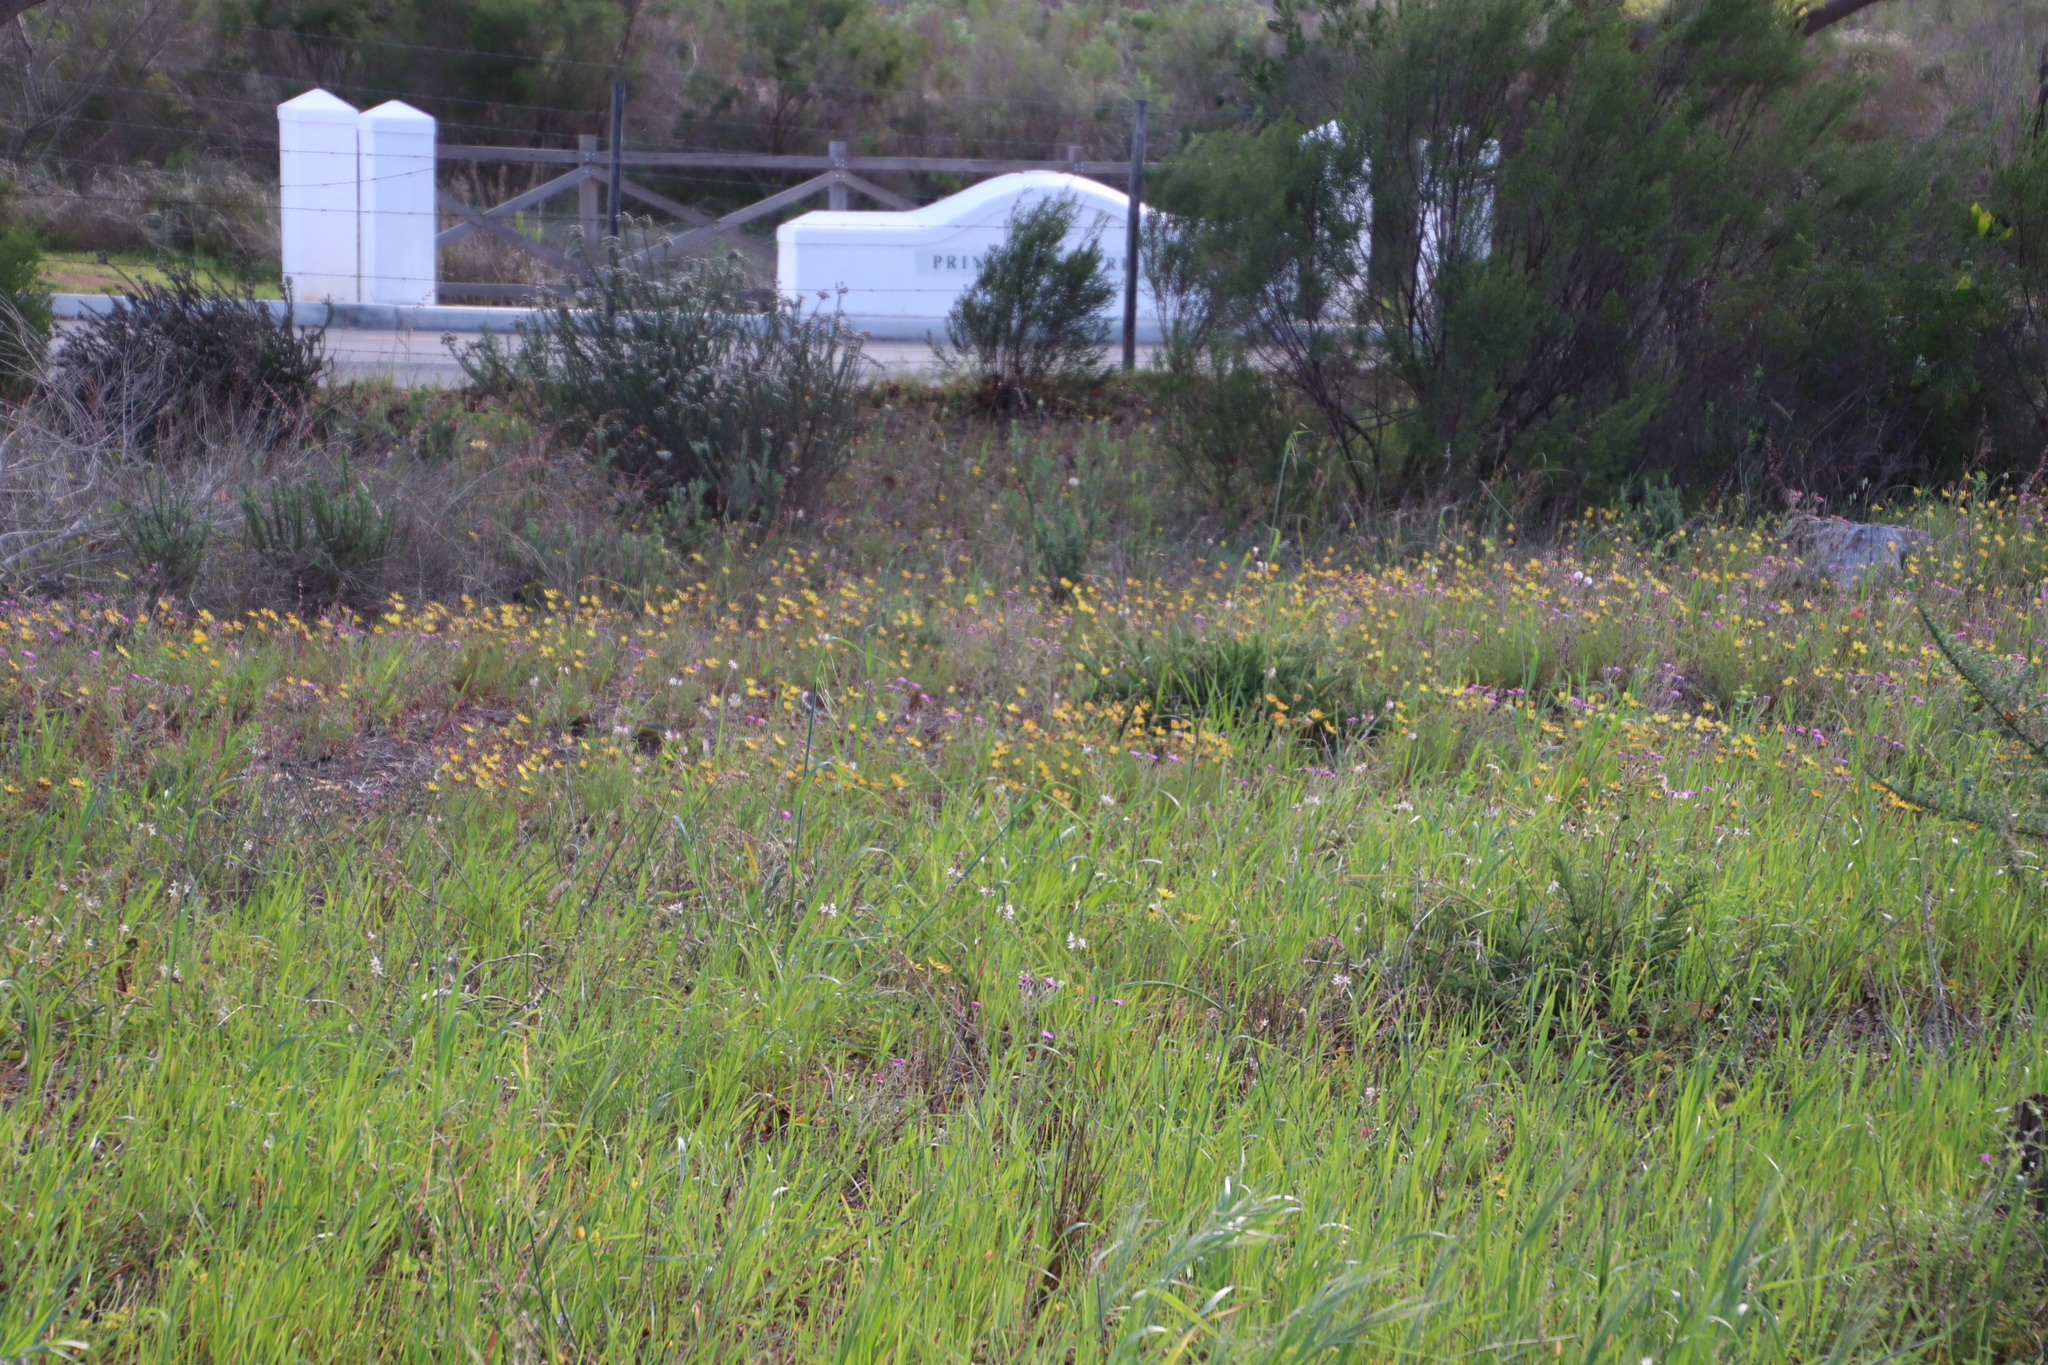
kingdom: Plantae
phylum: Tracheophyta
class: Magnoliopsida
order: Asterales
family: Asteraceae
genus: Ursinia
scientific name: Ursinia anthemoides
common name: Ursinia
